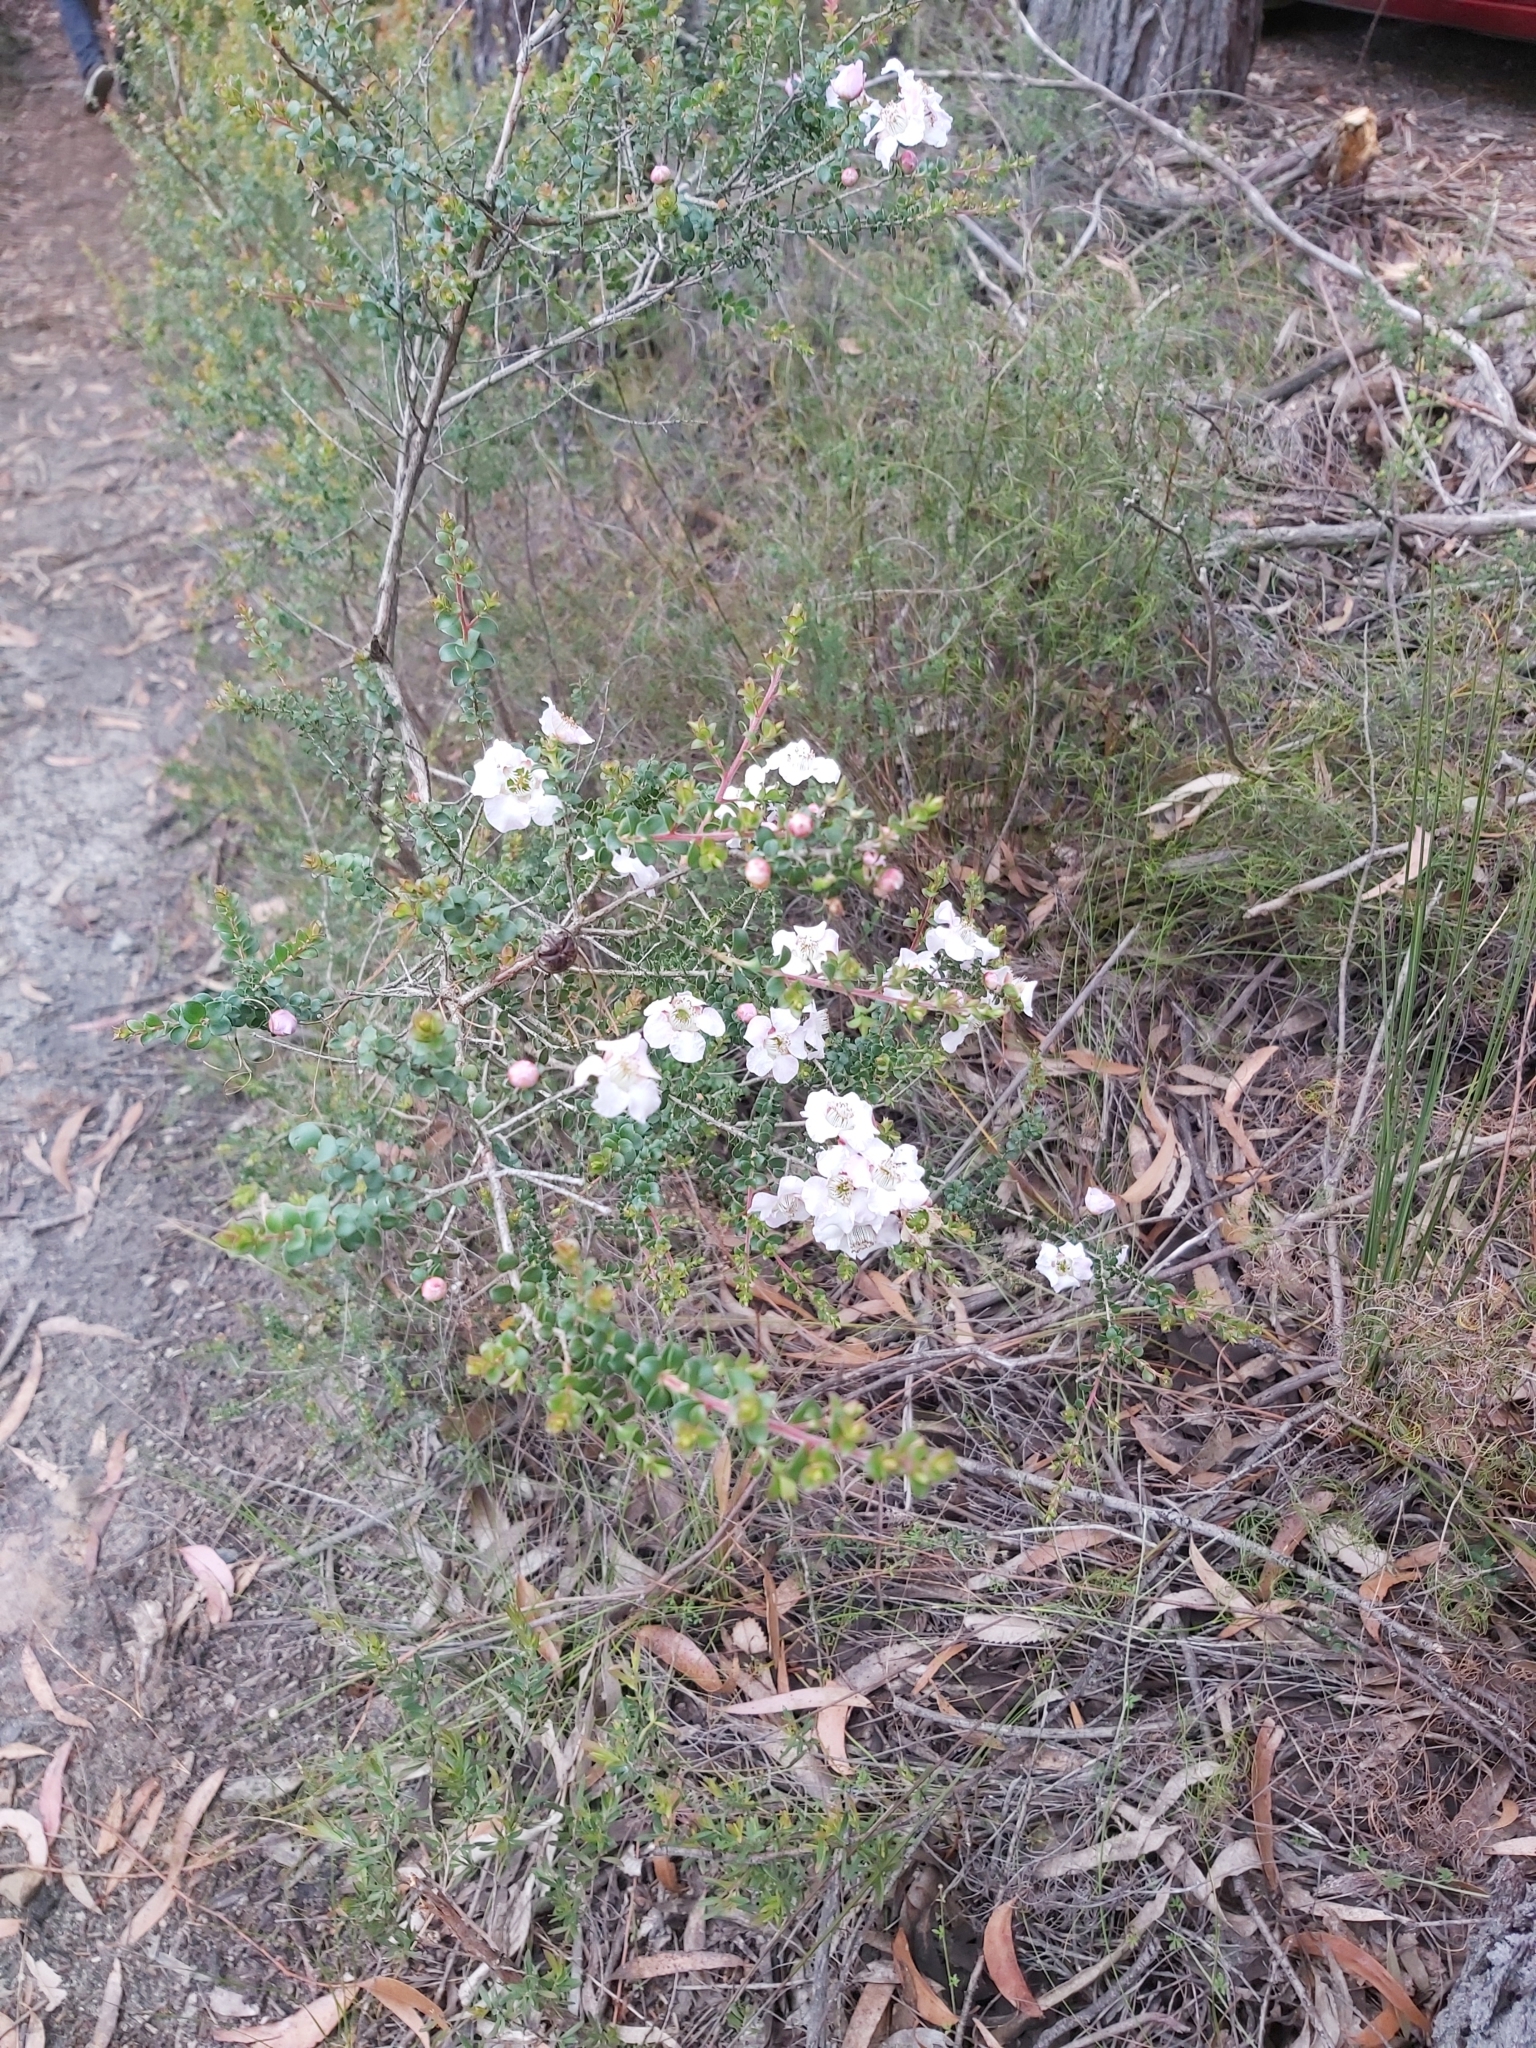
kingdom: Plantae
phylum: Tracheophyta
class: Magnoliopsida
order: Myrtales
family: Myrtaceae
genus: Leptospermum
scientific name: Leptospermum rotundifolium
